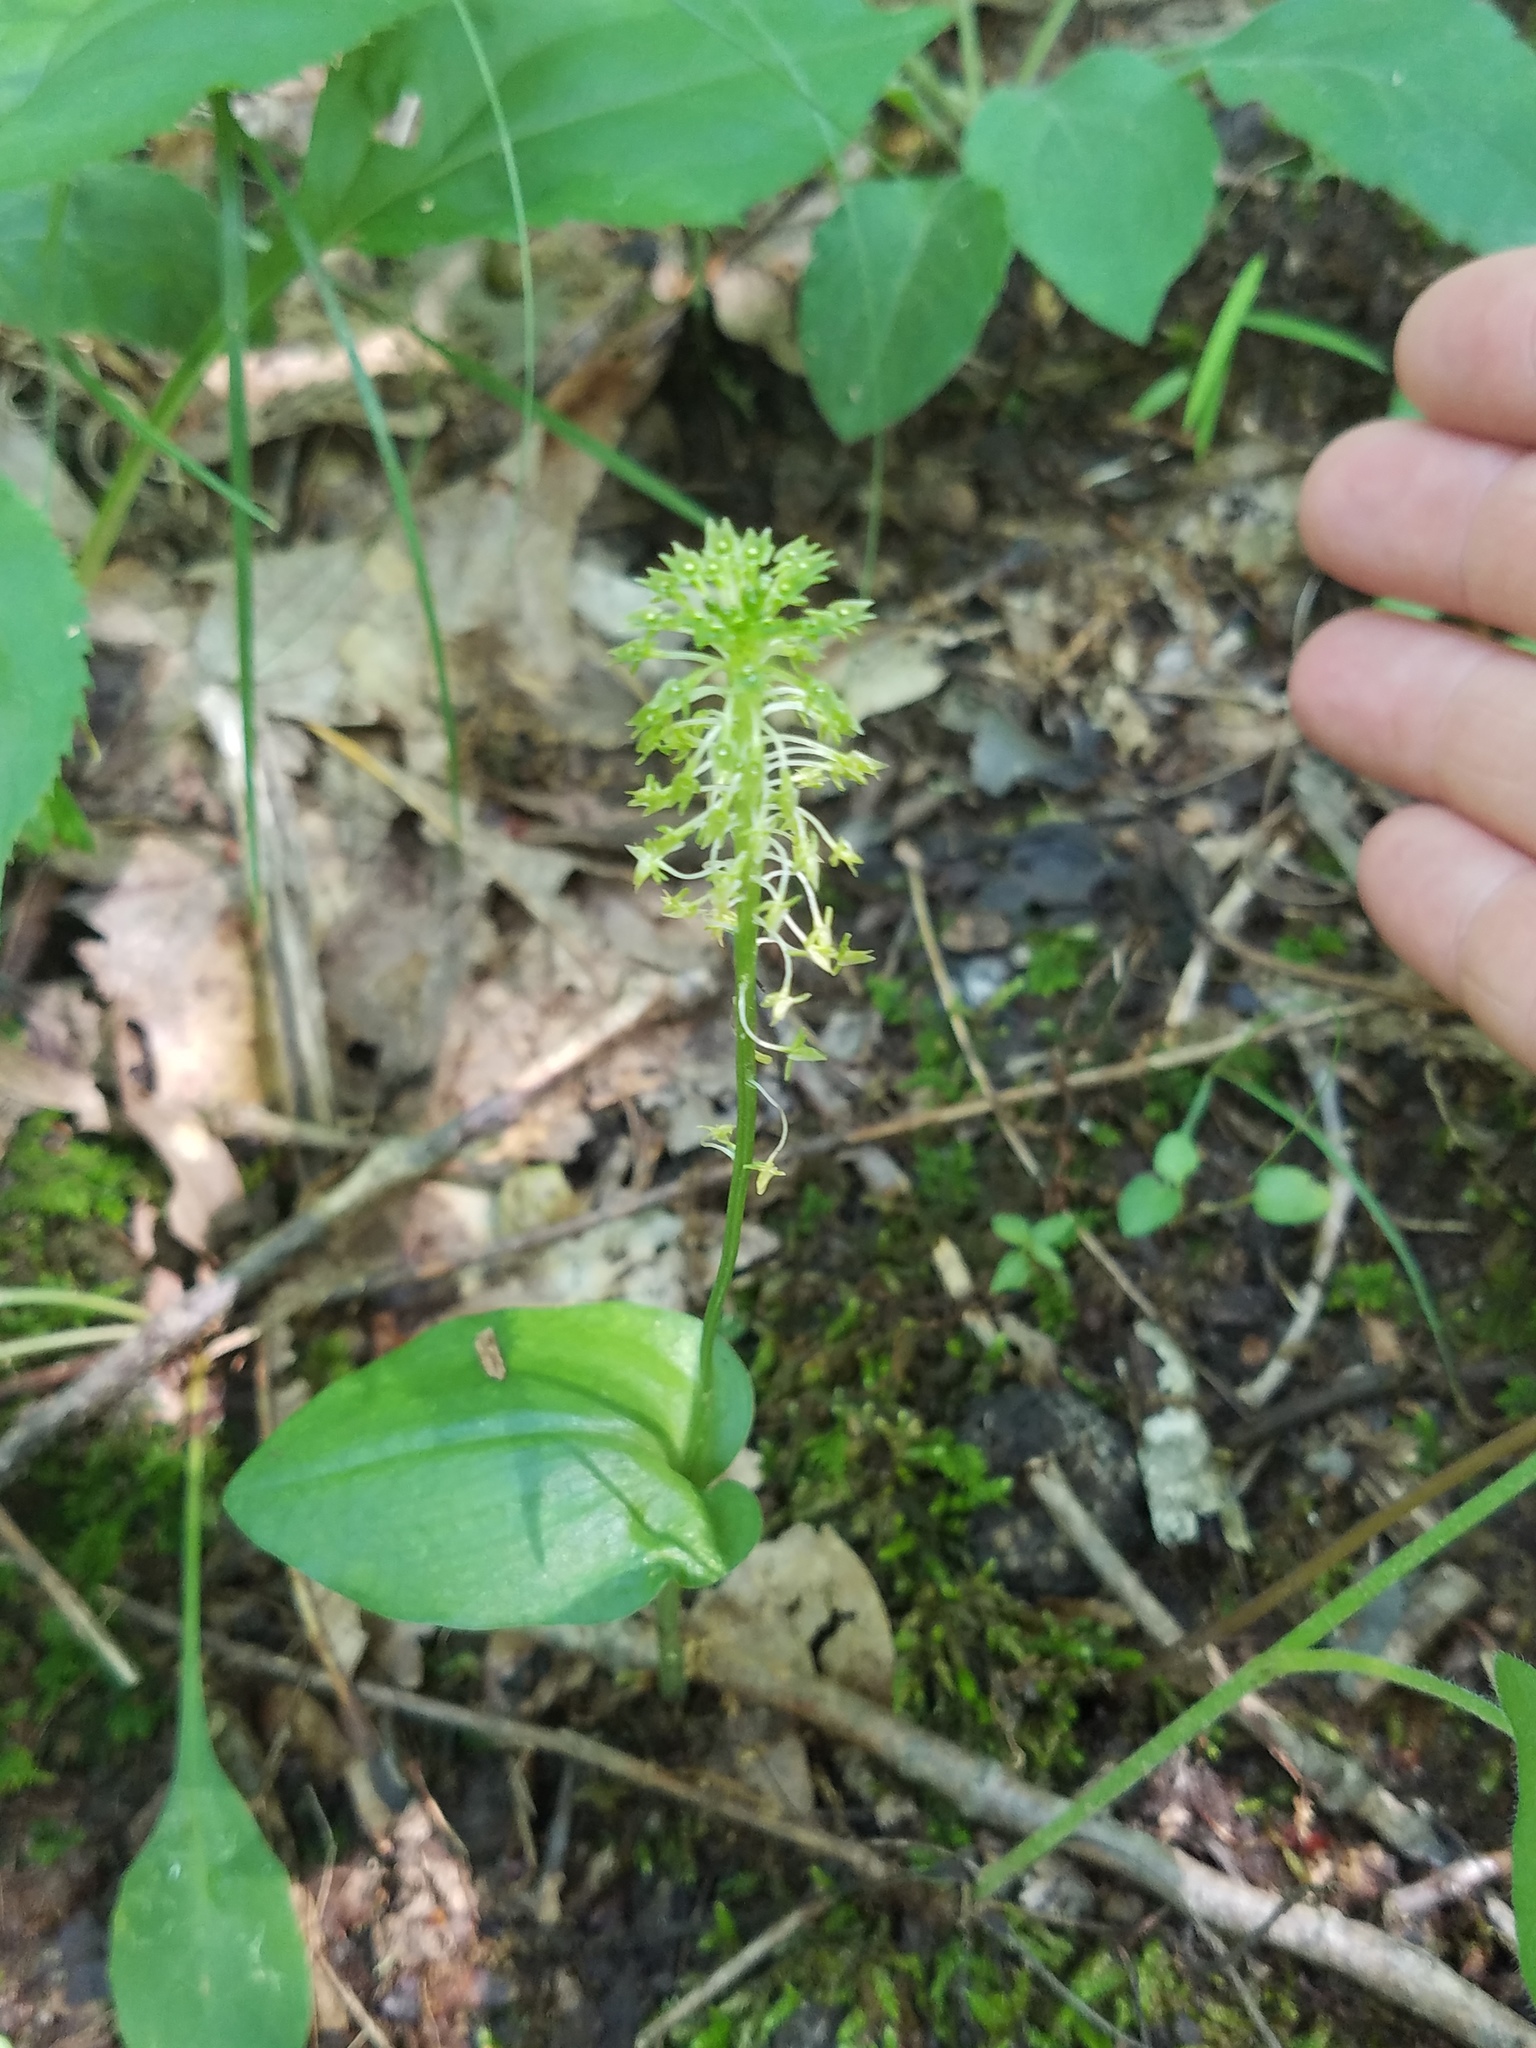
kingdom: Plantae
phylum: Tracheophyta
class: Liliopsida
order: Asparagales
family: Orchidaceae
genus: Malaxis
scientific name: Malaxis unifolia
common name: Green adder's-mouth
